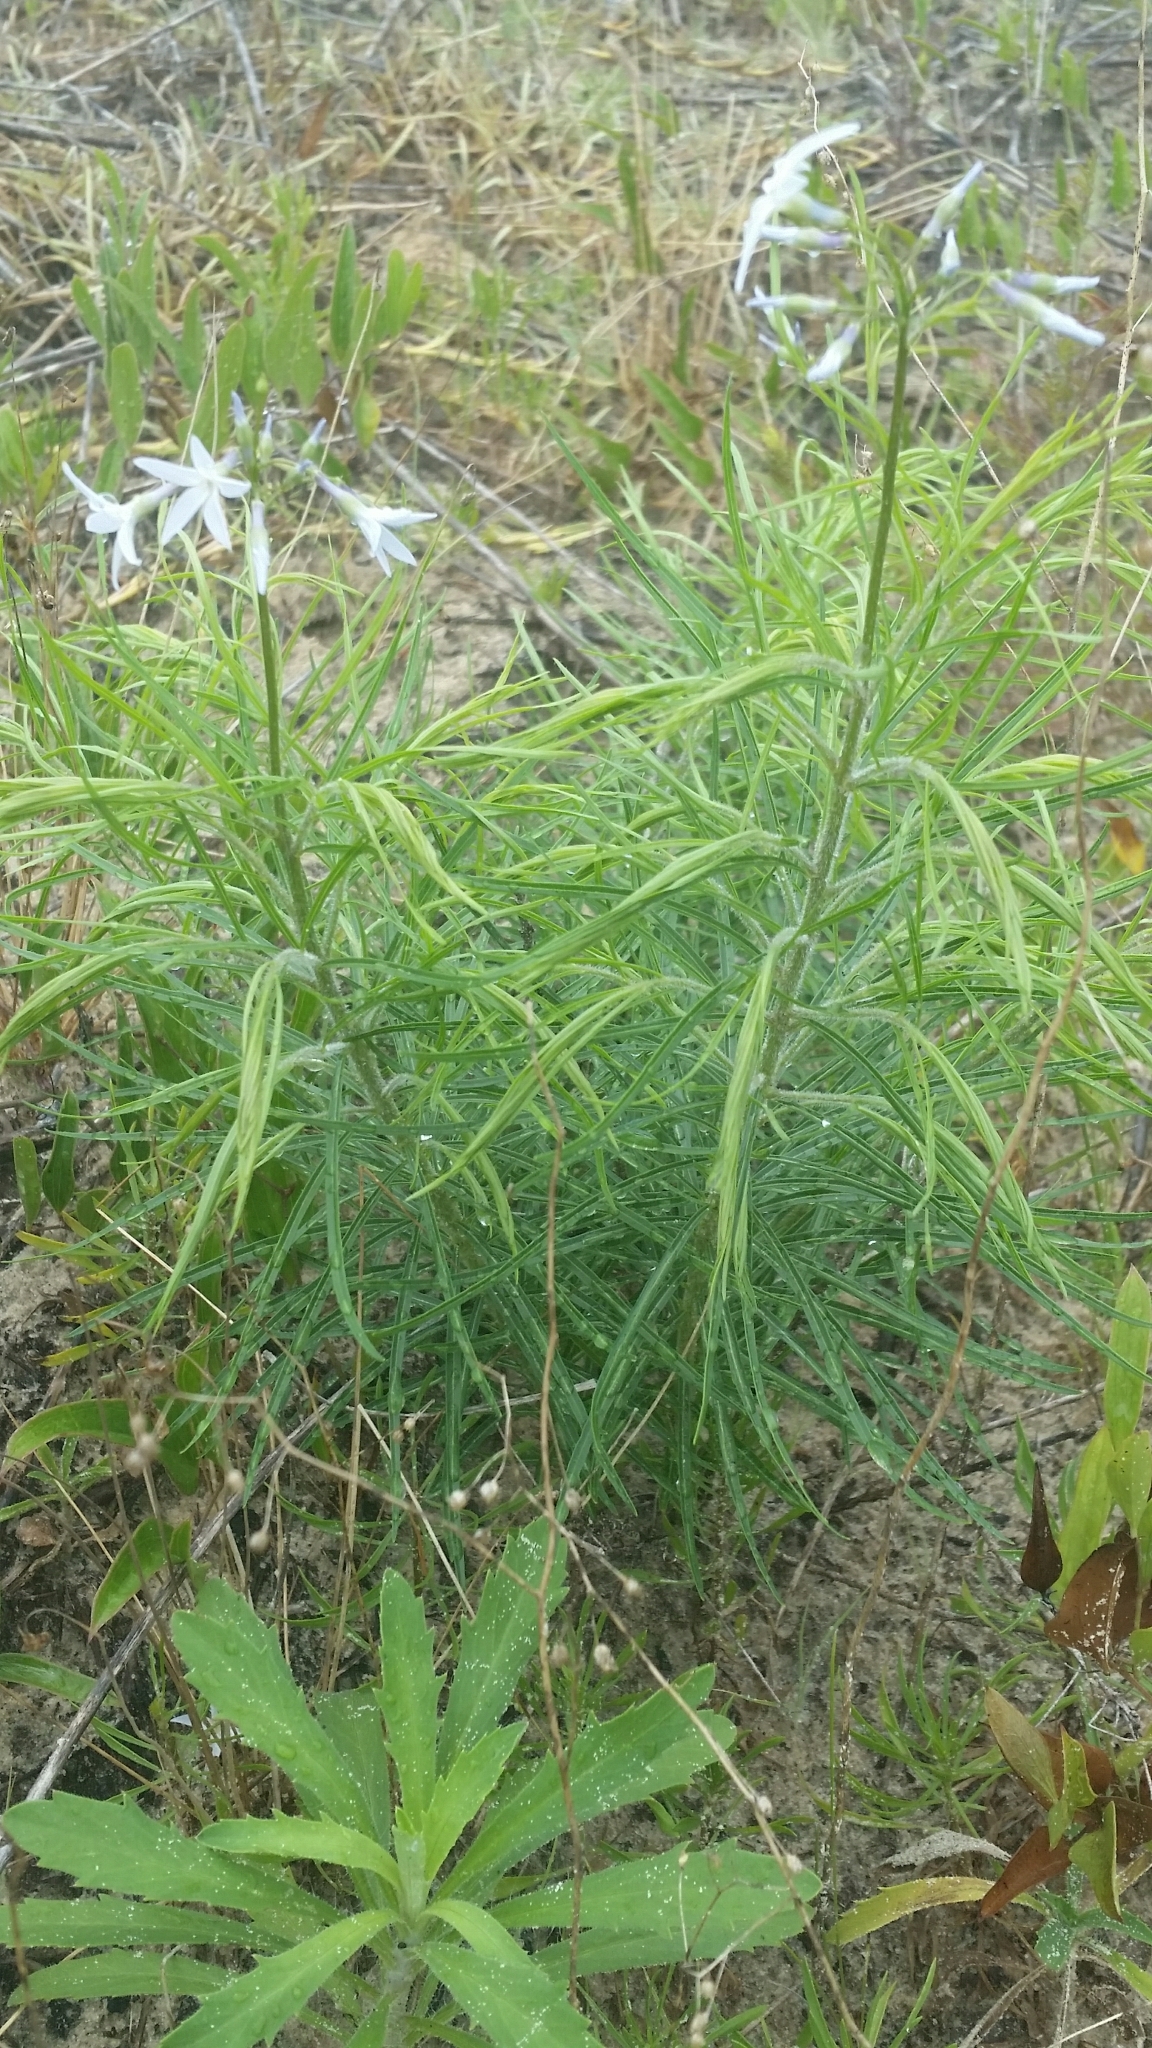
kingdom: Plantae
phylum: Tracheophyta
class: Magnoliopsida
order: Gentianales
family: Apocynaceae
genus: Amsonia
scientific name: Amsonia ciliata
